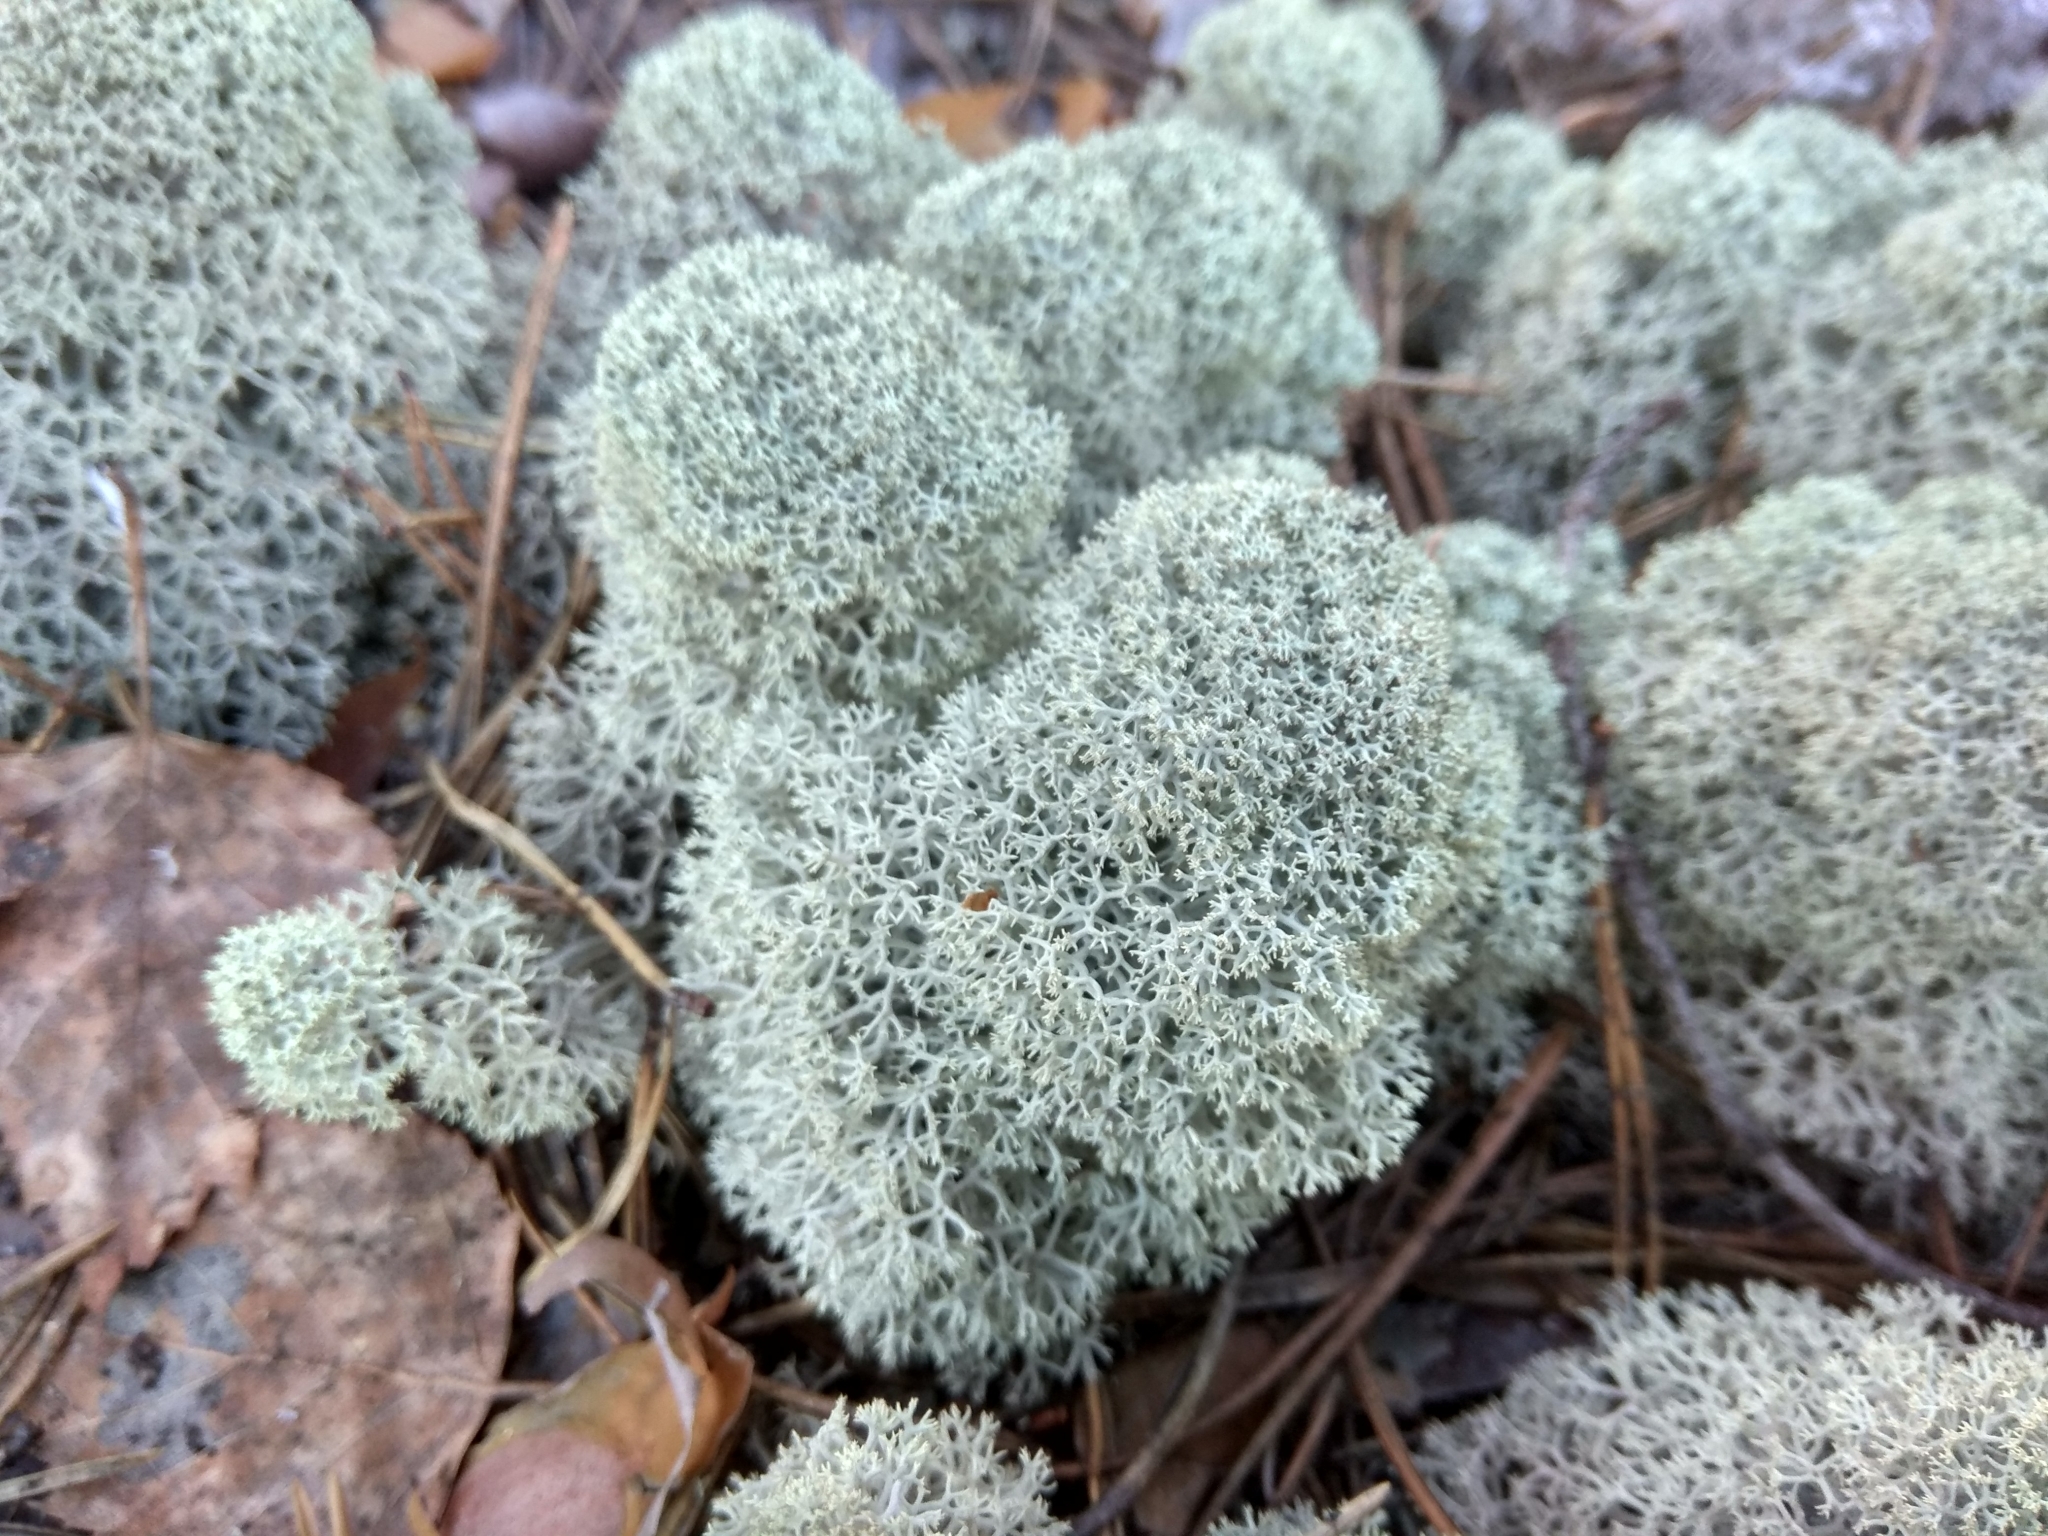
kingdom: Fungi
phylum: Ascomycota
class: Lecanoromycetes
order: Lecanorales
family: Cladoniaceae
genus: Cladonia
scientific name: Cladonia stellaris
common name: Star-tipped reindeer lichen
